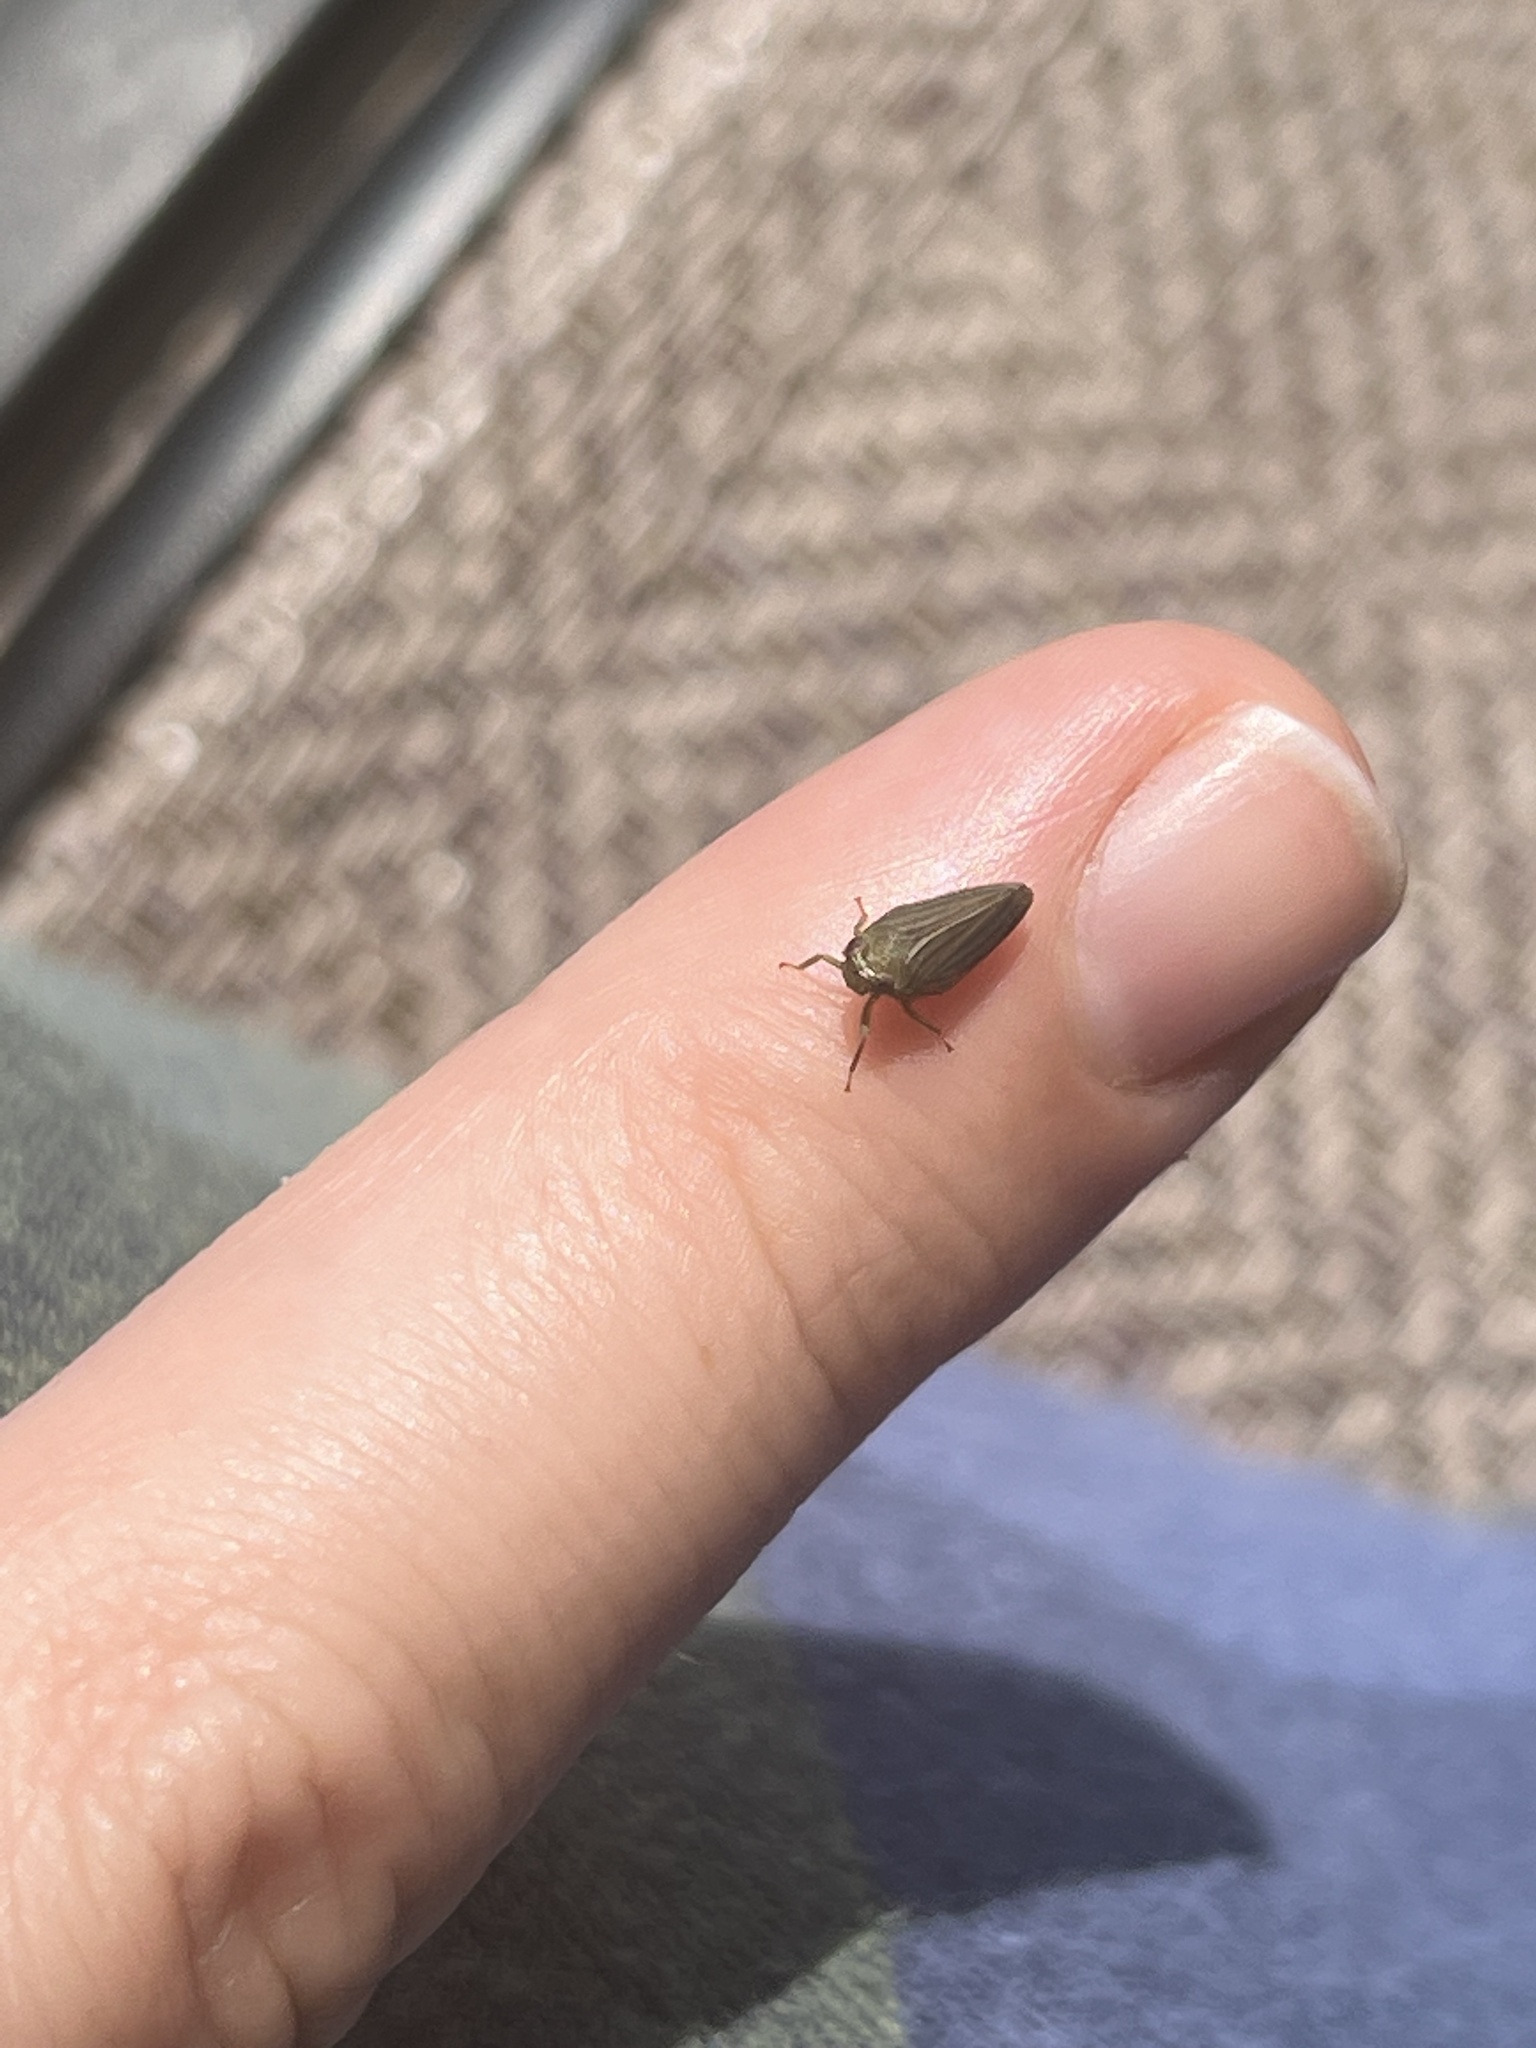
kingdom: Animalia
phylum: Arthropoda
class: Insecta
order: Hemiptera
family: Issidae
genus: Aplos
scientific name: Aplos simplex
